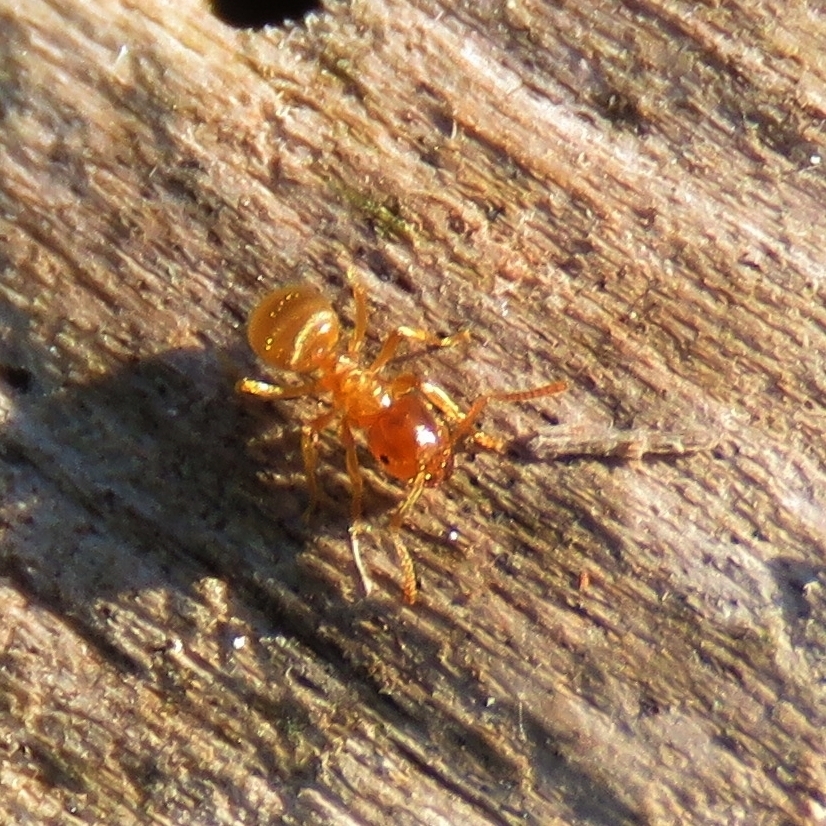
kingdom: Animalia
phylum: Arthropoda
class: Insecta
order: Hymenoptera
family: Formicidae
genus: Lasius
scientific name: Lasius
